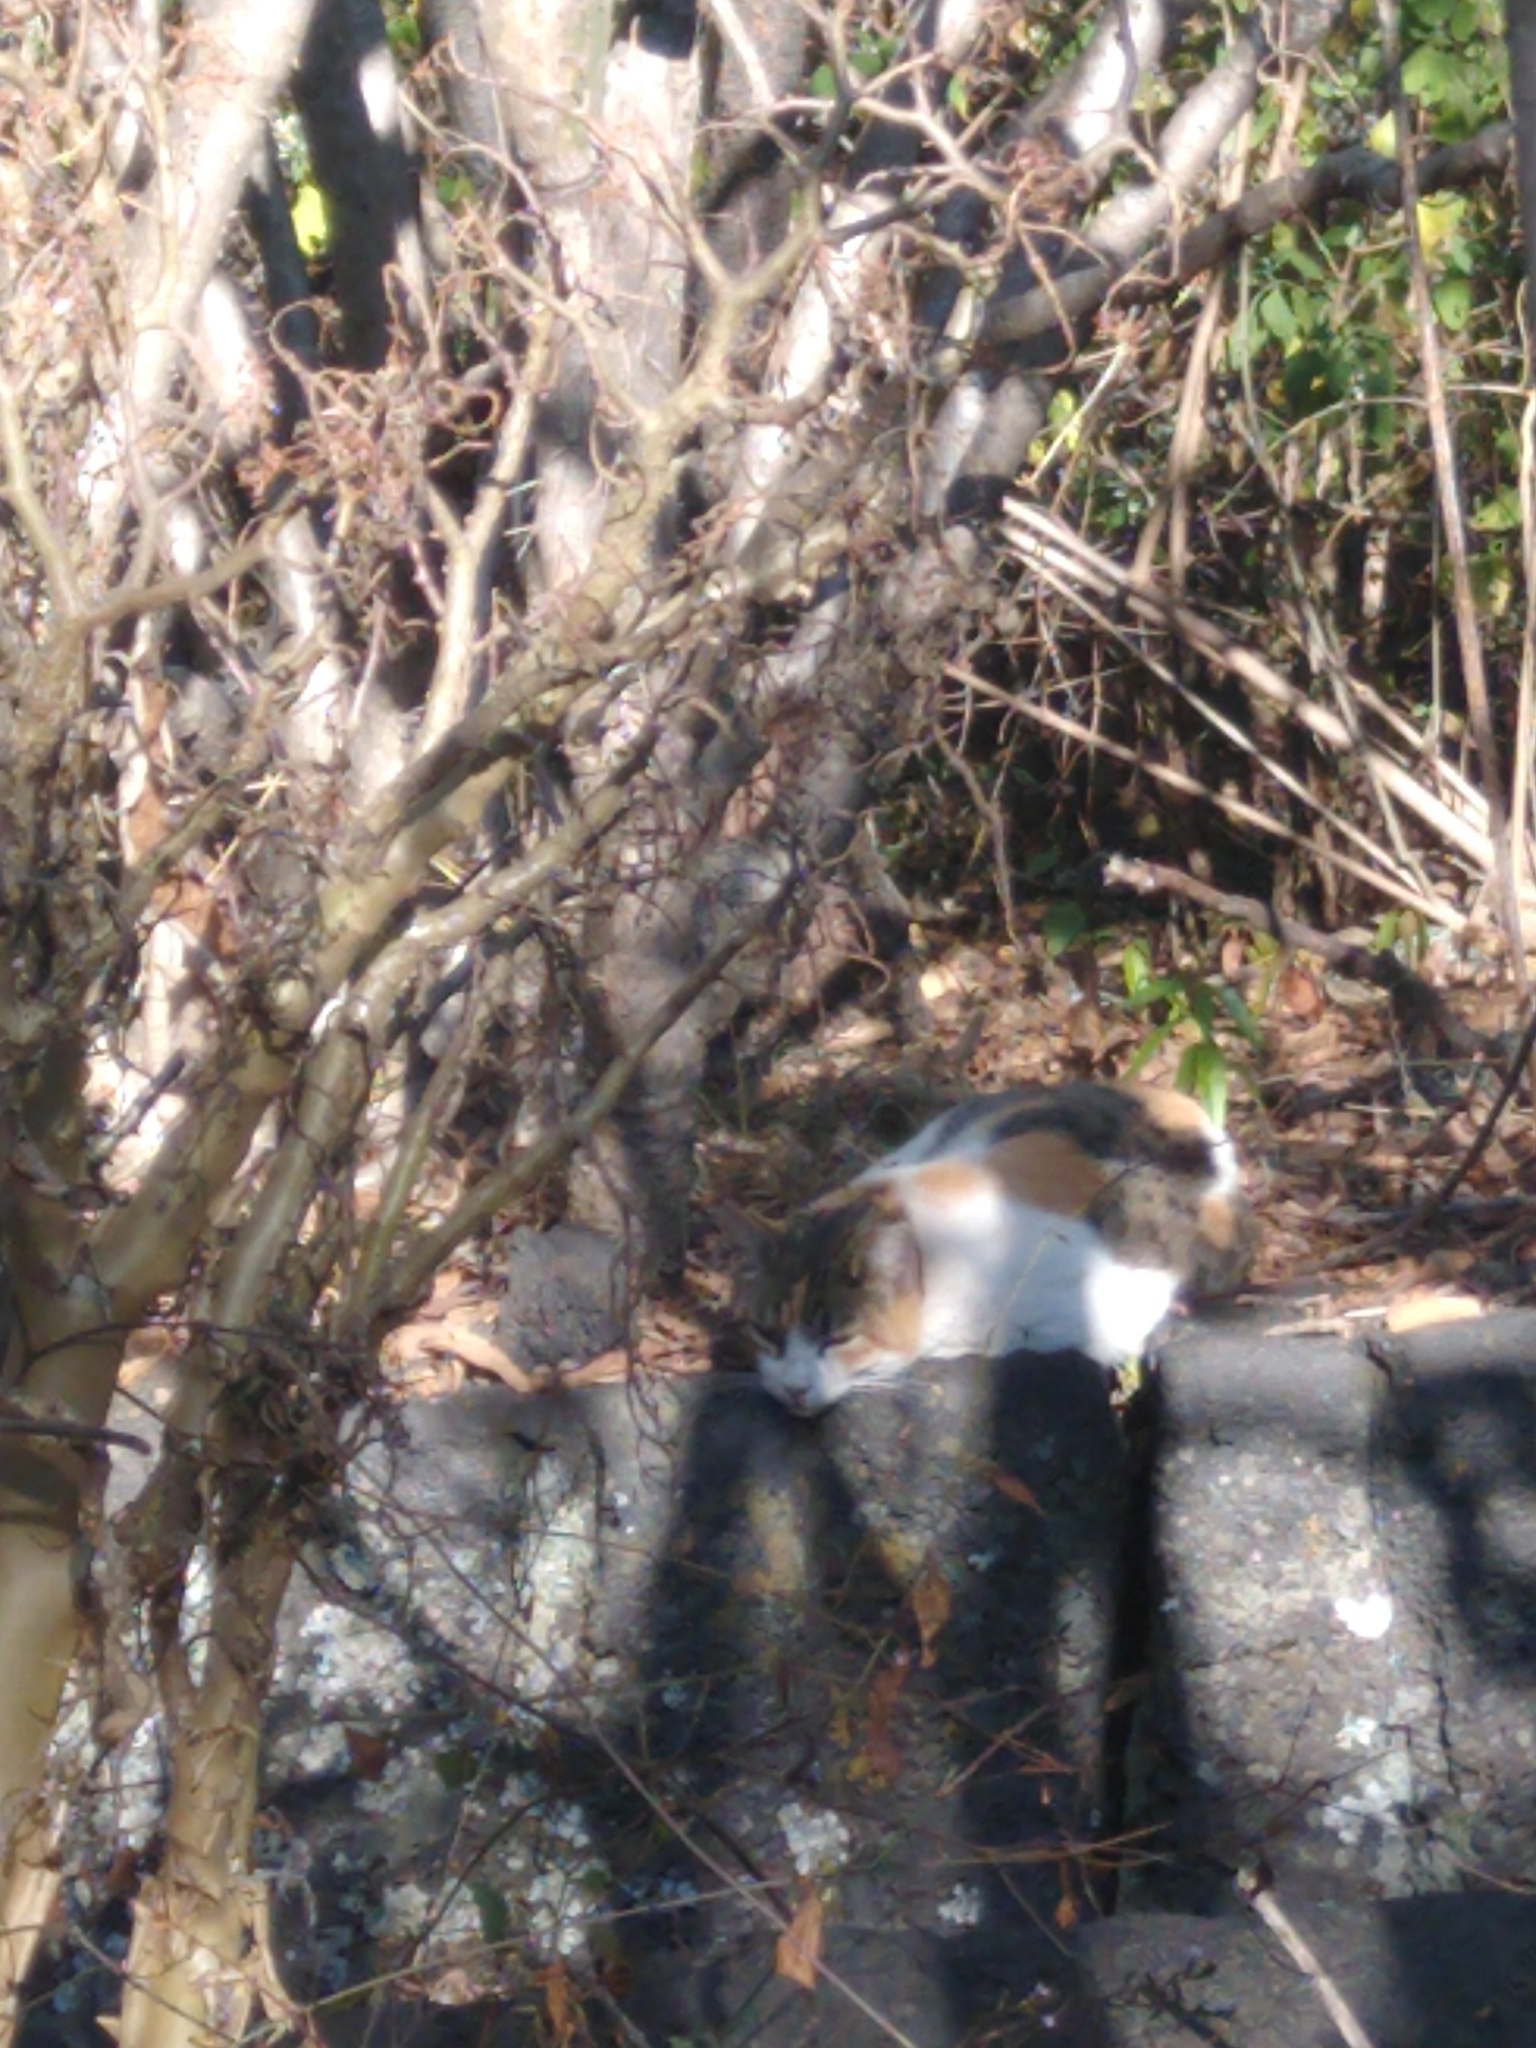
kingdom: Animalia
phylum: Chordata
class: Mammalia
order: Carnivora
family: Felidae
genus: Felis
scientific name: Felis catus
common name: Domestic cat
